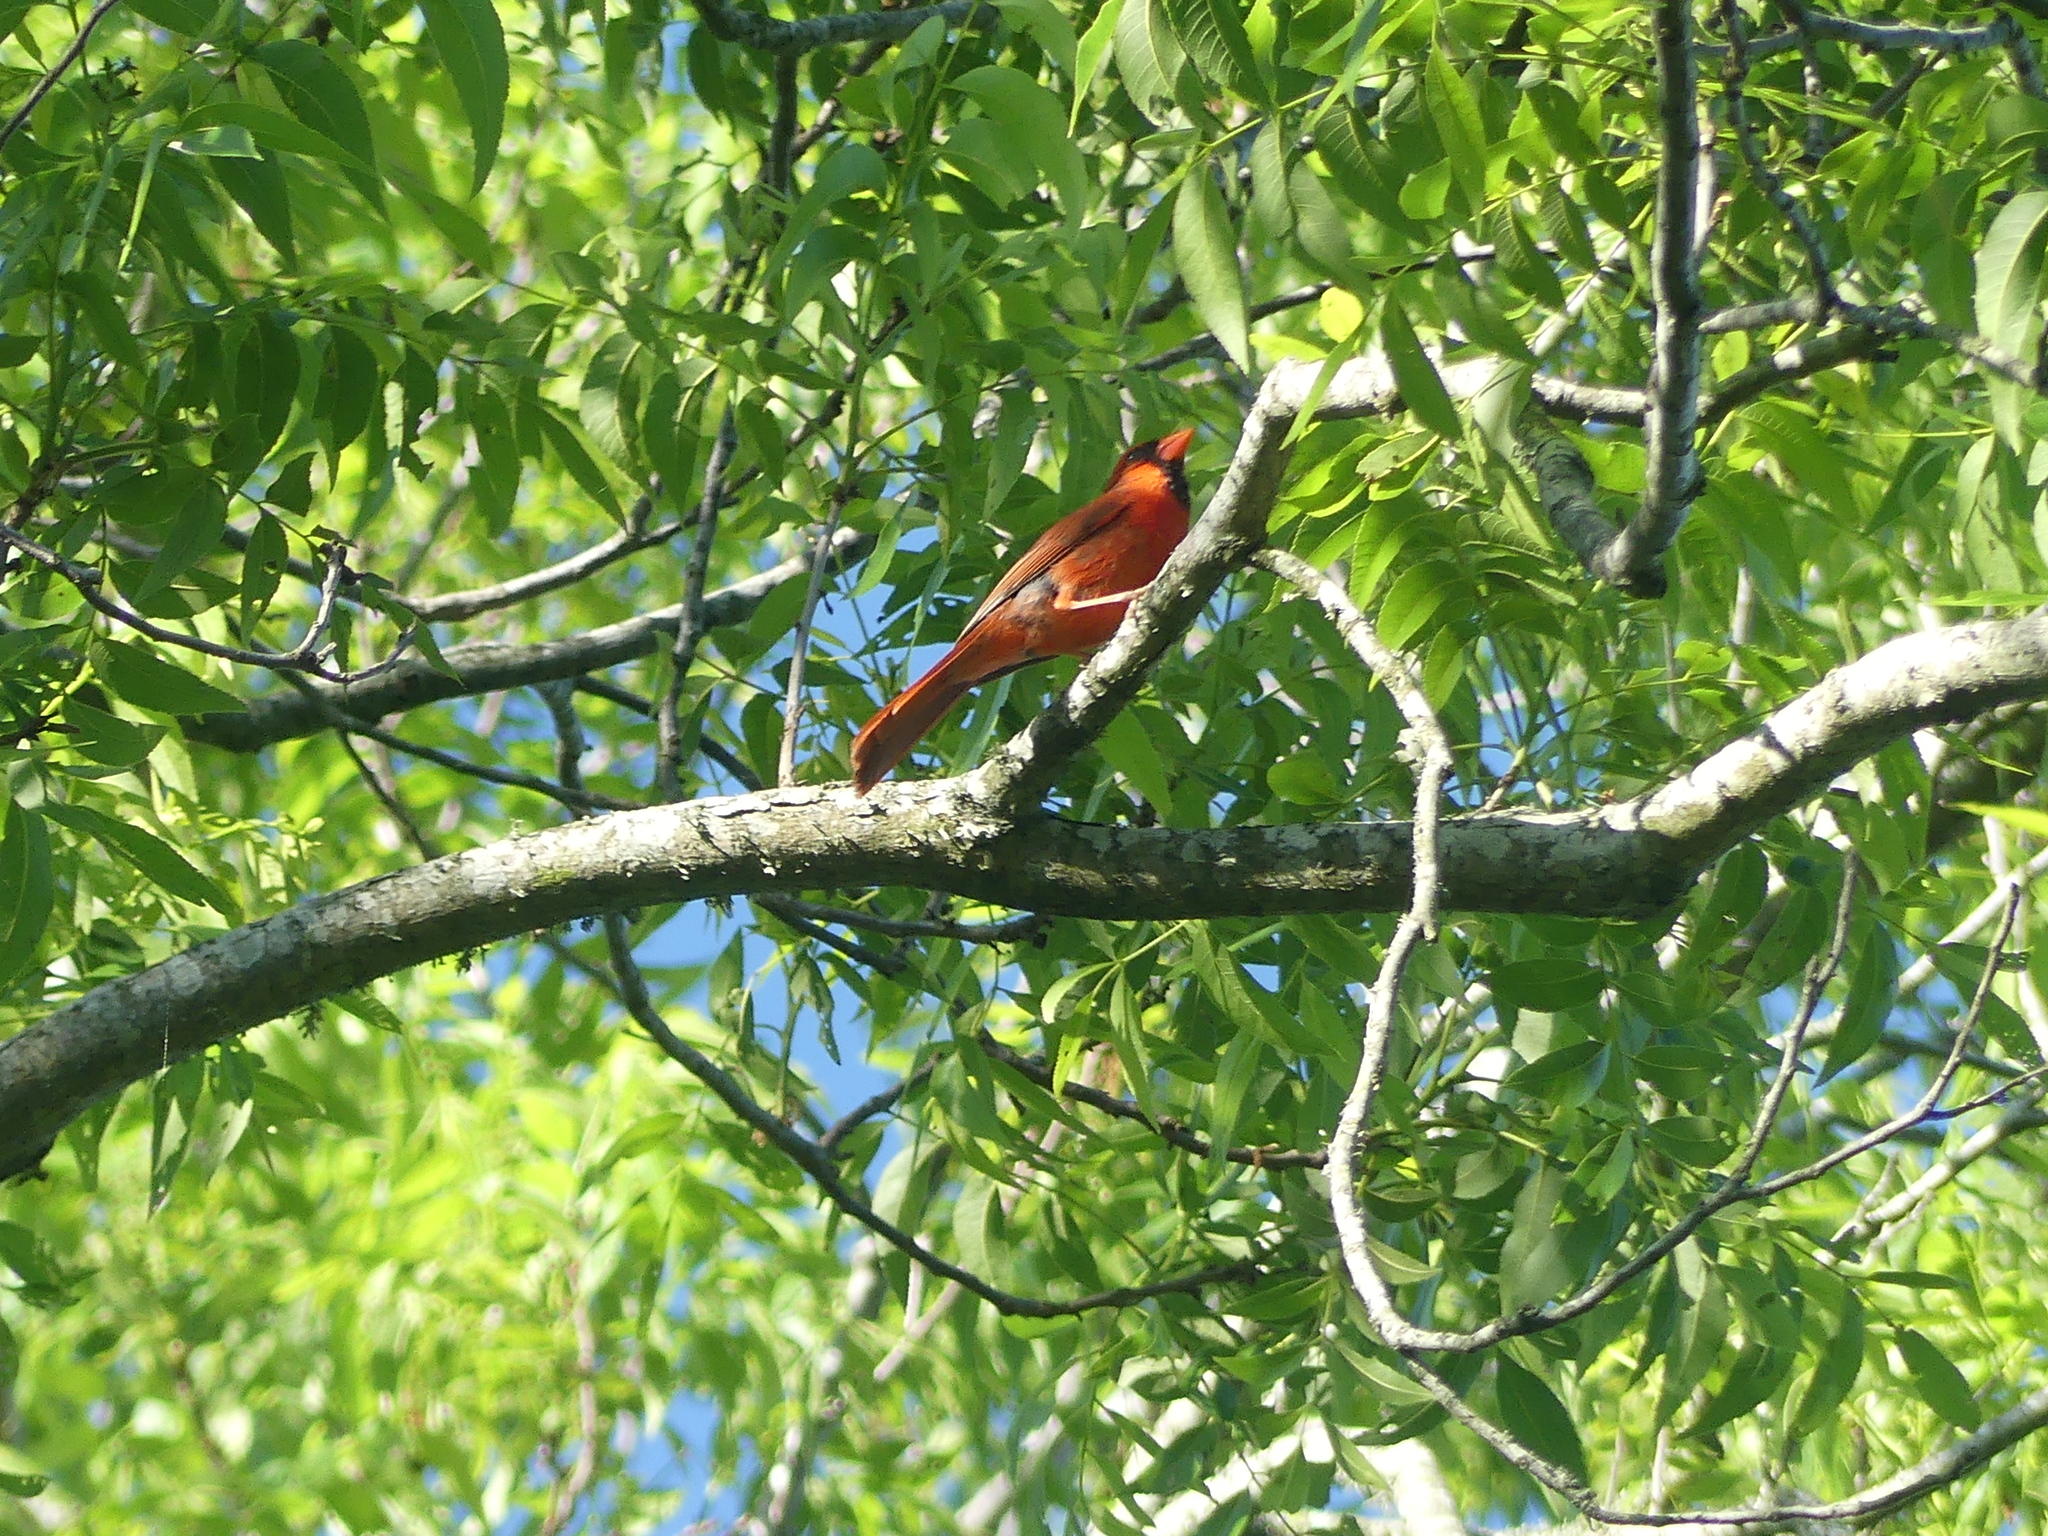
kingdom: Animalia
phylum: Chordata
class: Aves
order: Passeriformes
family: Cardinalidae
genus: Cardinalis
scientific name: Cardinalis cardinalis
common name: Northern cardinal
